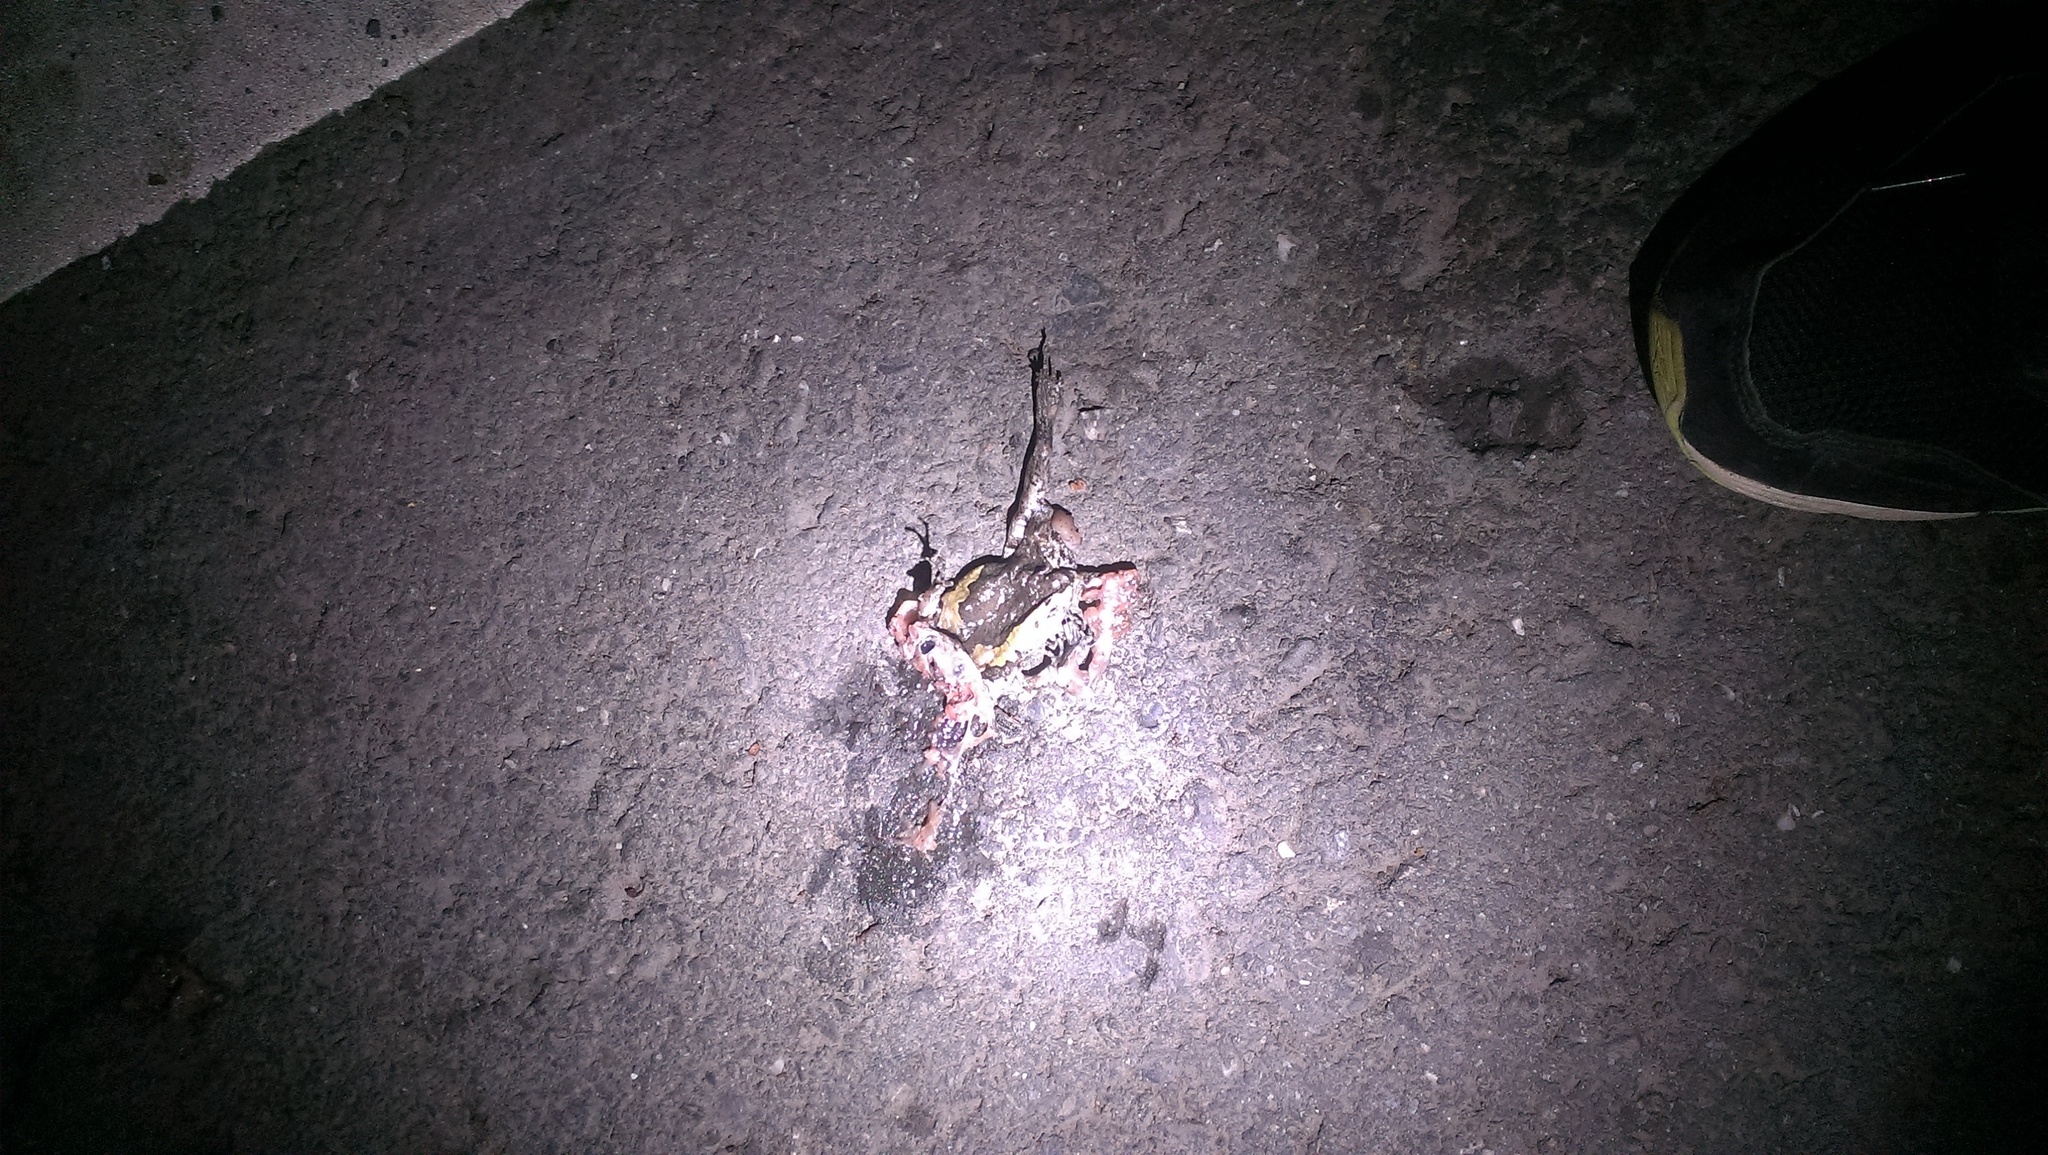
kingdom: Animalia
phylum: Chordata
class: Amphibia
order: Anura
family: Microhylidae
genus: Kaloula
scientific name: Kaloula pulchra
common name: Common,banded bullfrog
